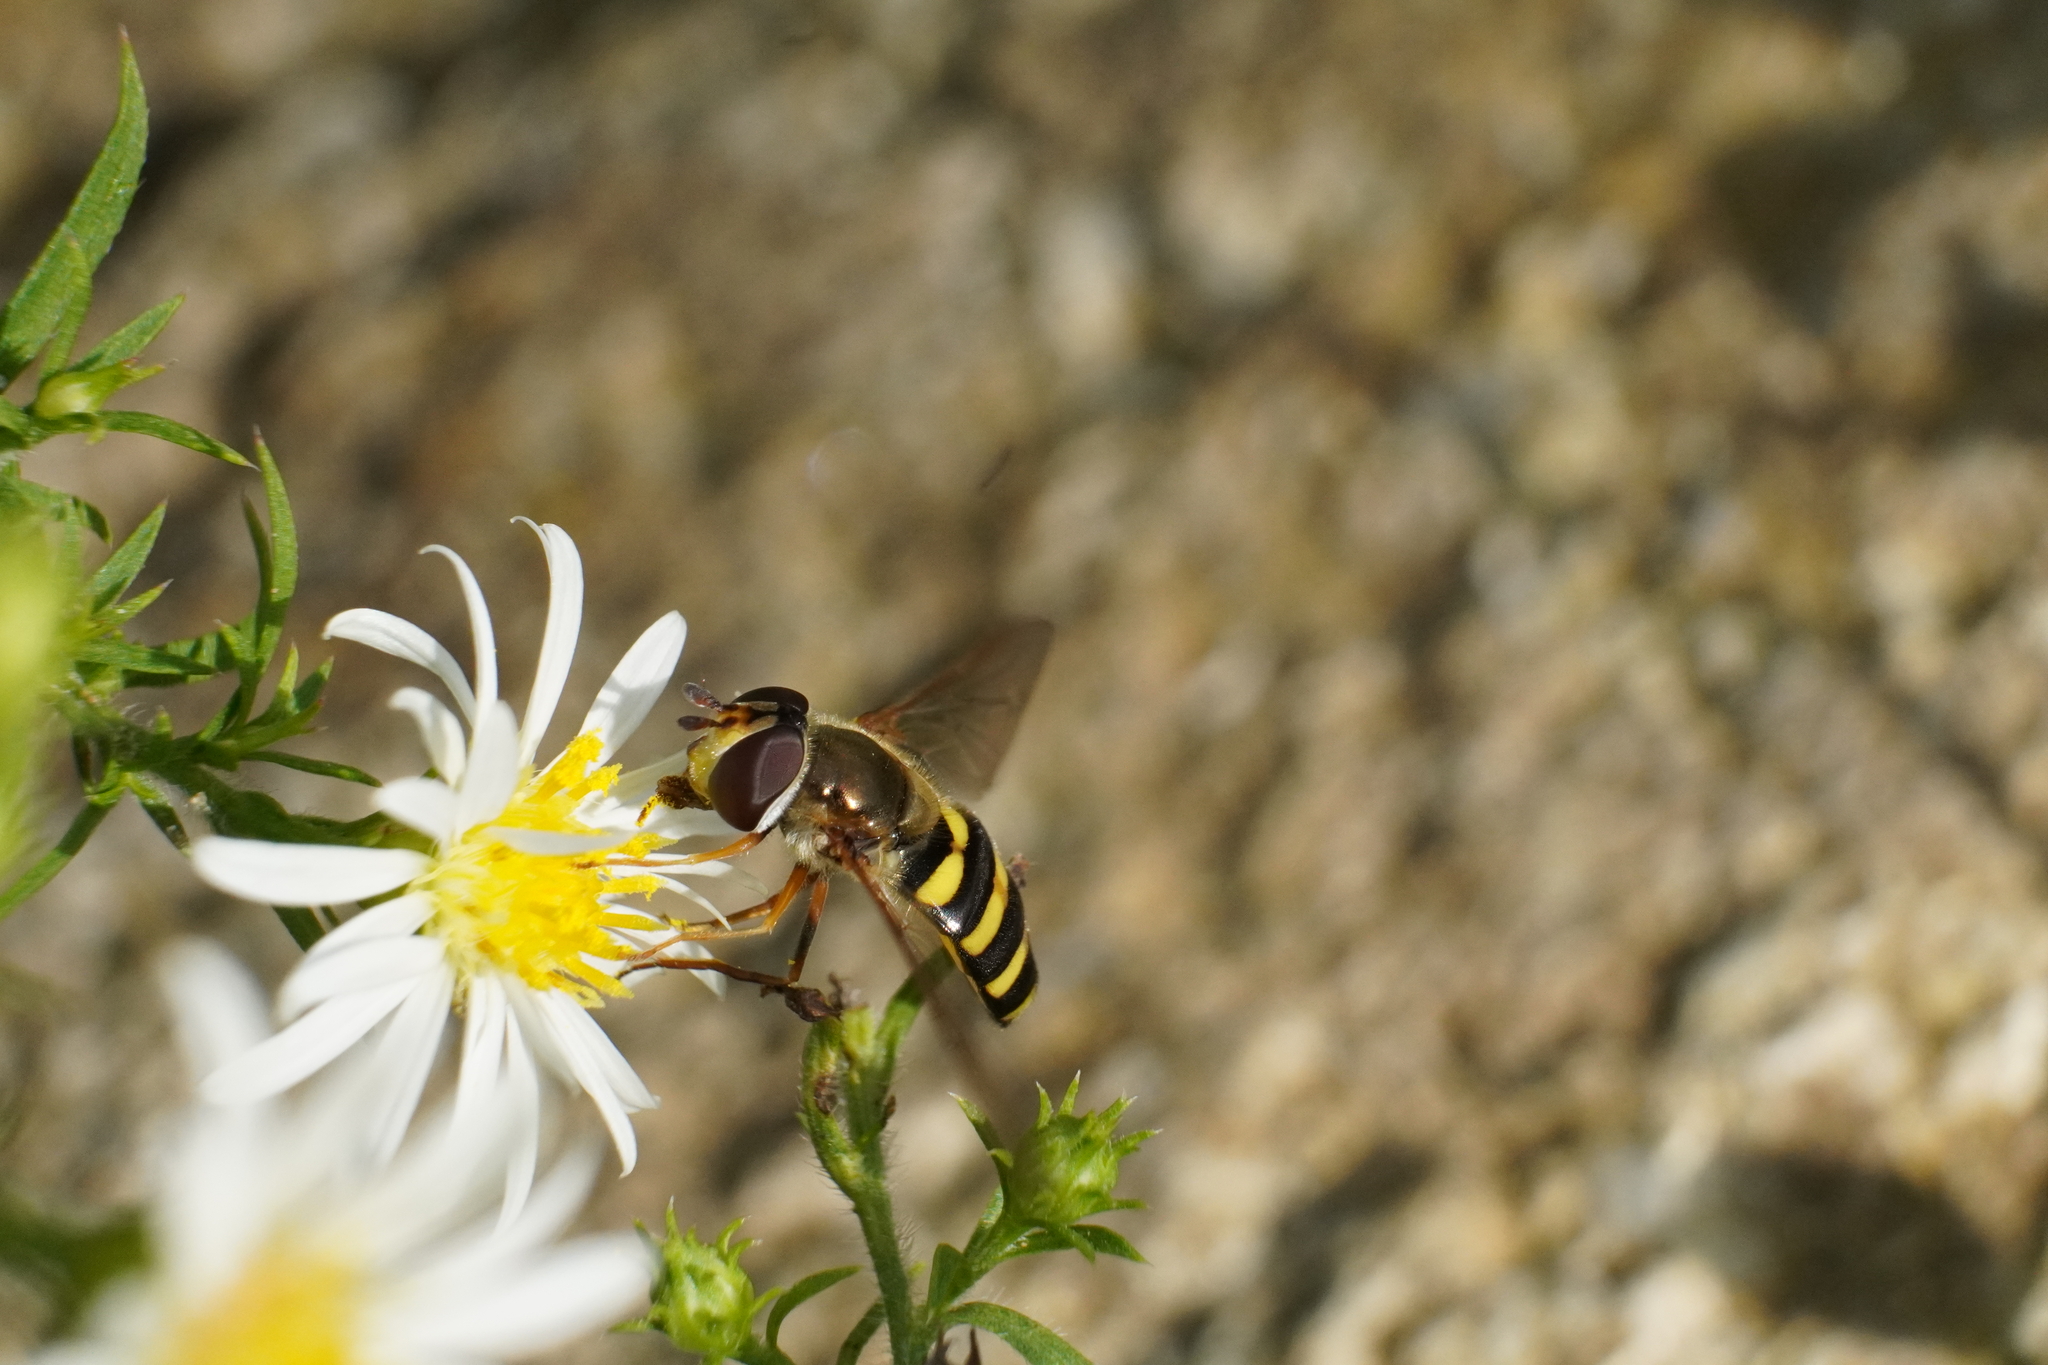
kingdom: Animalia
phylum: Arthropoda
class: Insecta
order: Diptera
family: Syrphidae
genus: Eupeodes
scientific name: Eupeodes
